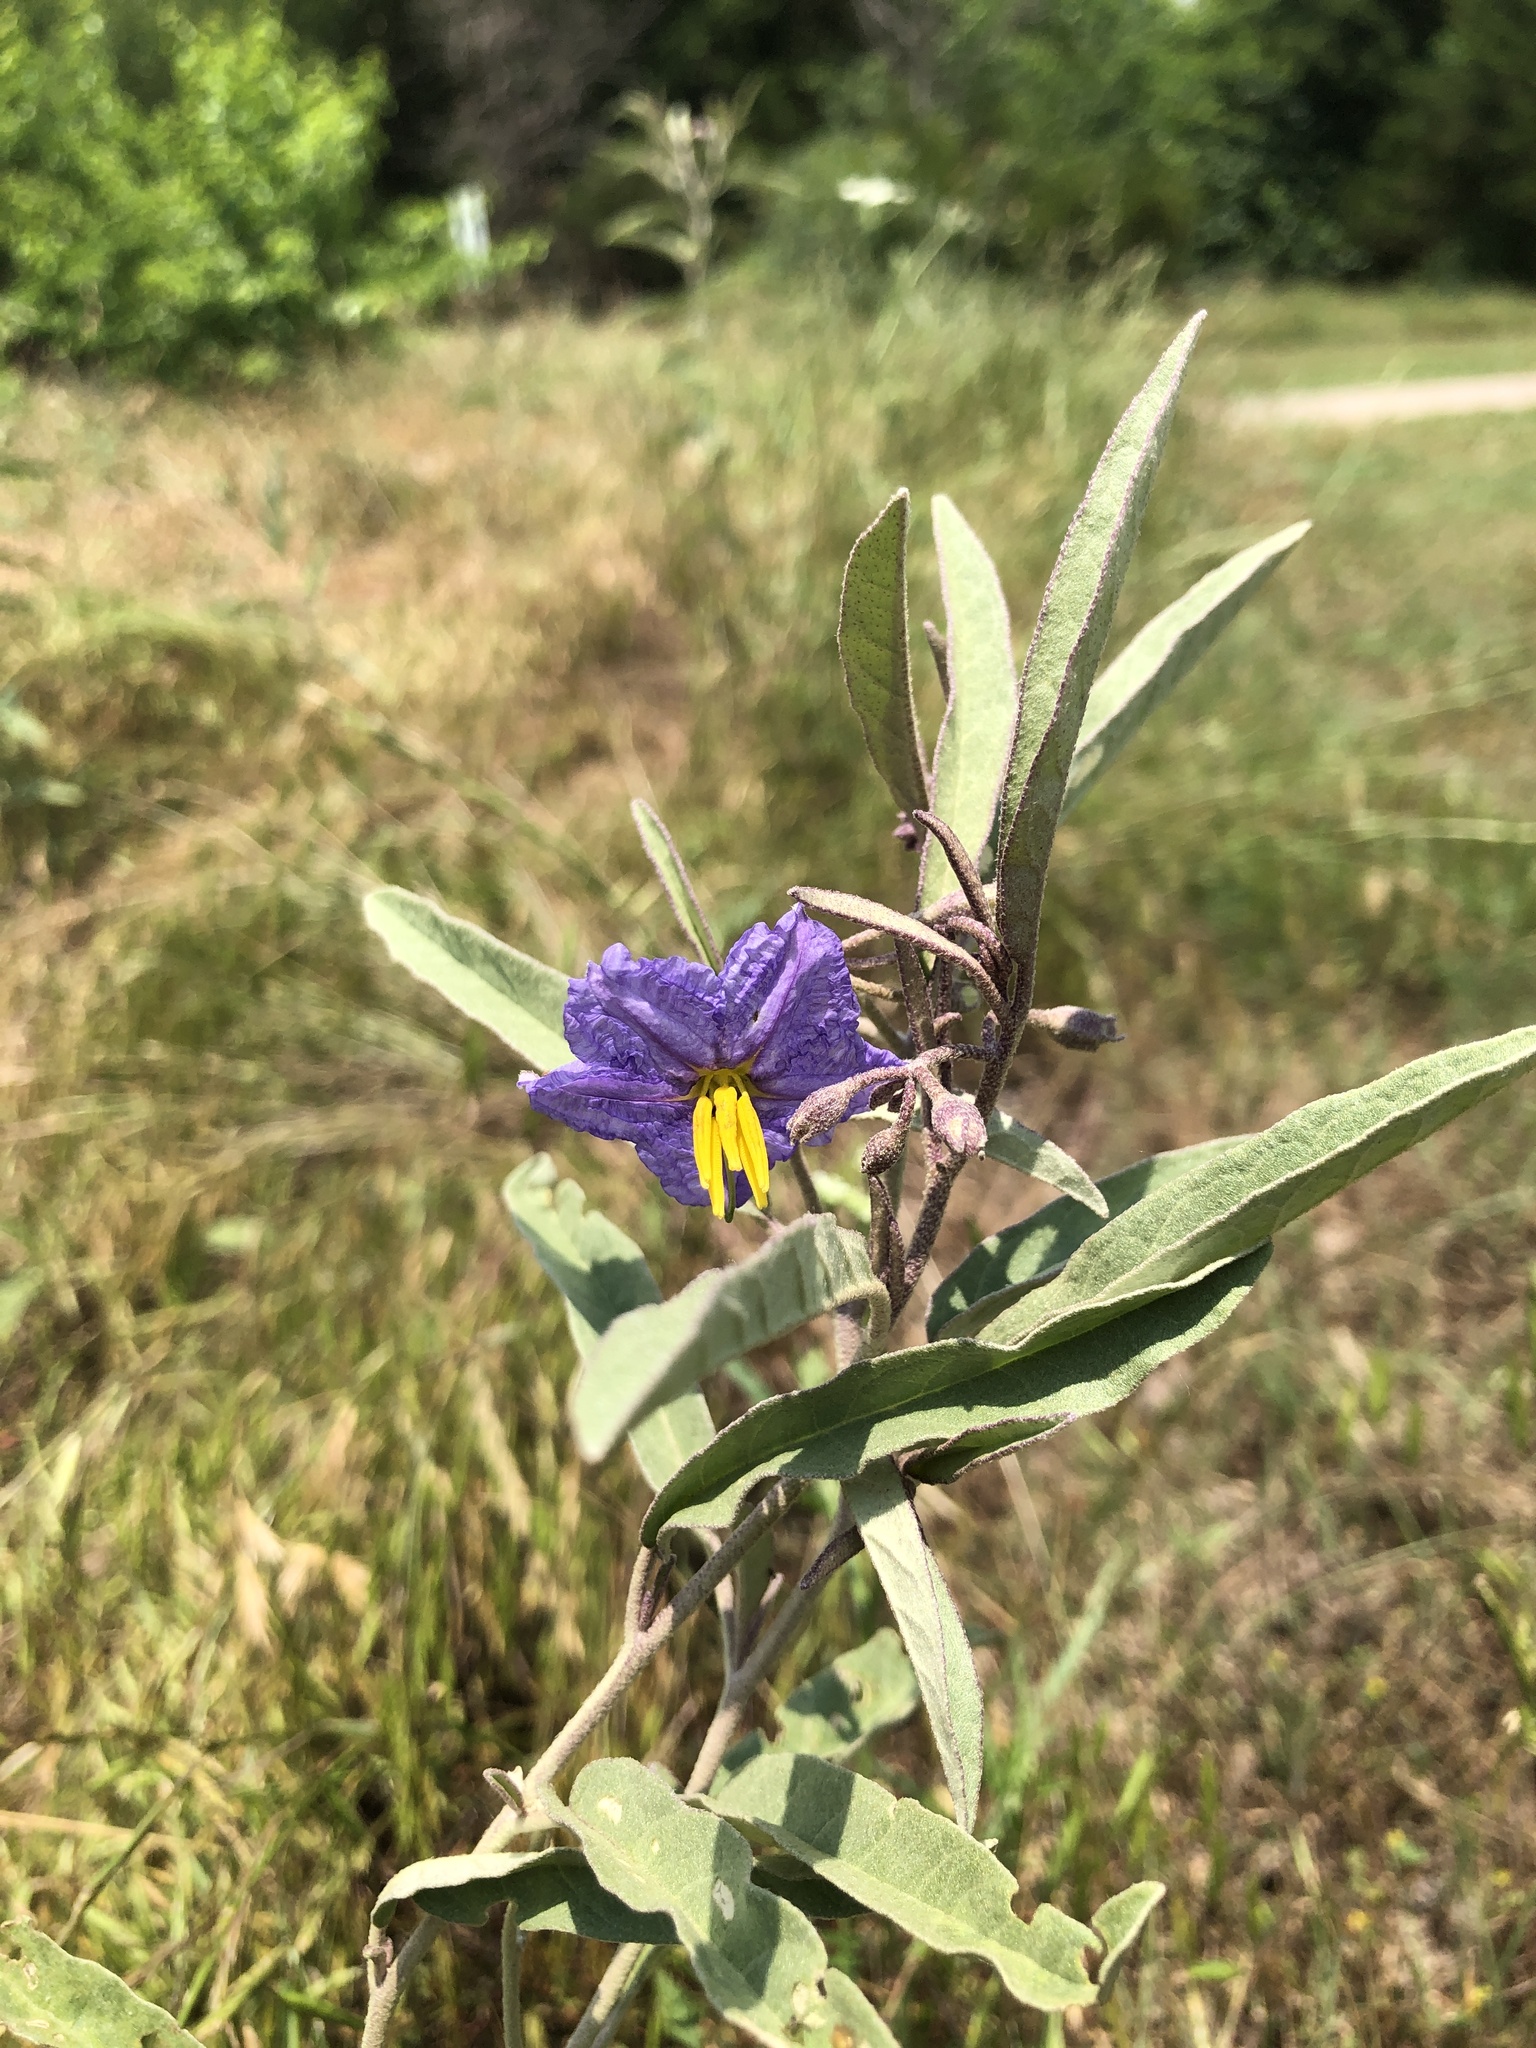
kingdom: Plantae
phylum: Tracheophyta
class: Magnoliopsida
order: Solanales
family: Solanaceae
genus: Solanum
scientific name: Solanum elaeagnifolium
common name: Silverleaf nightshade
